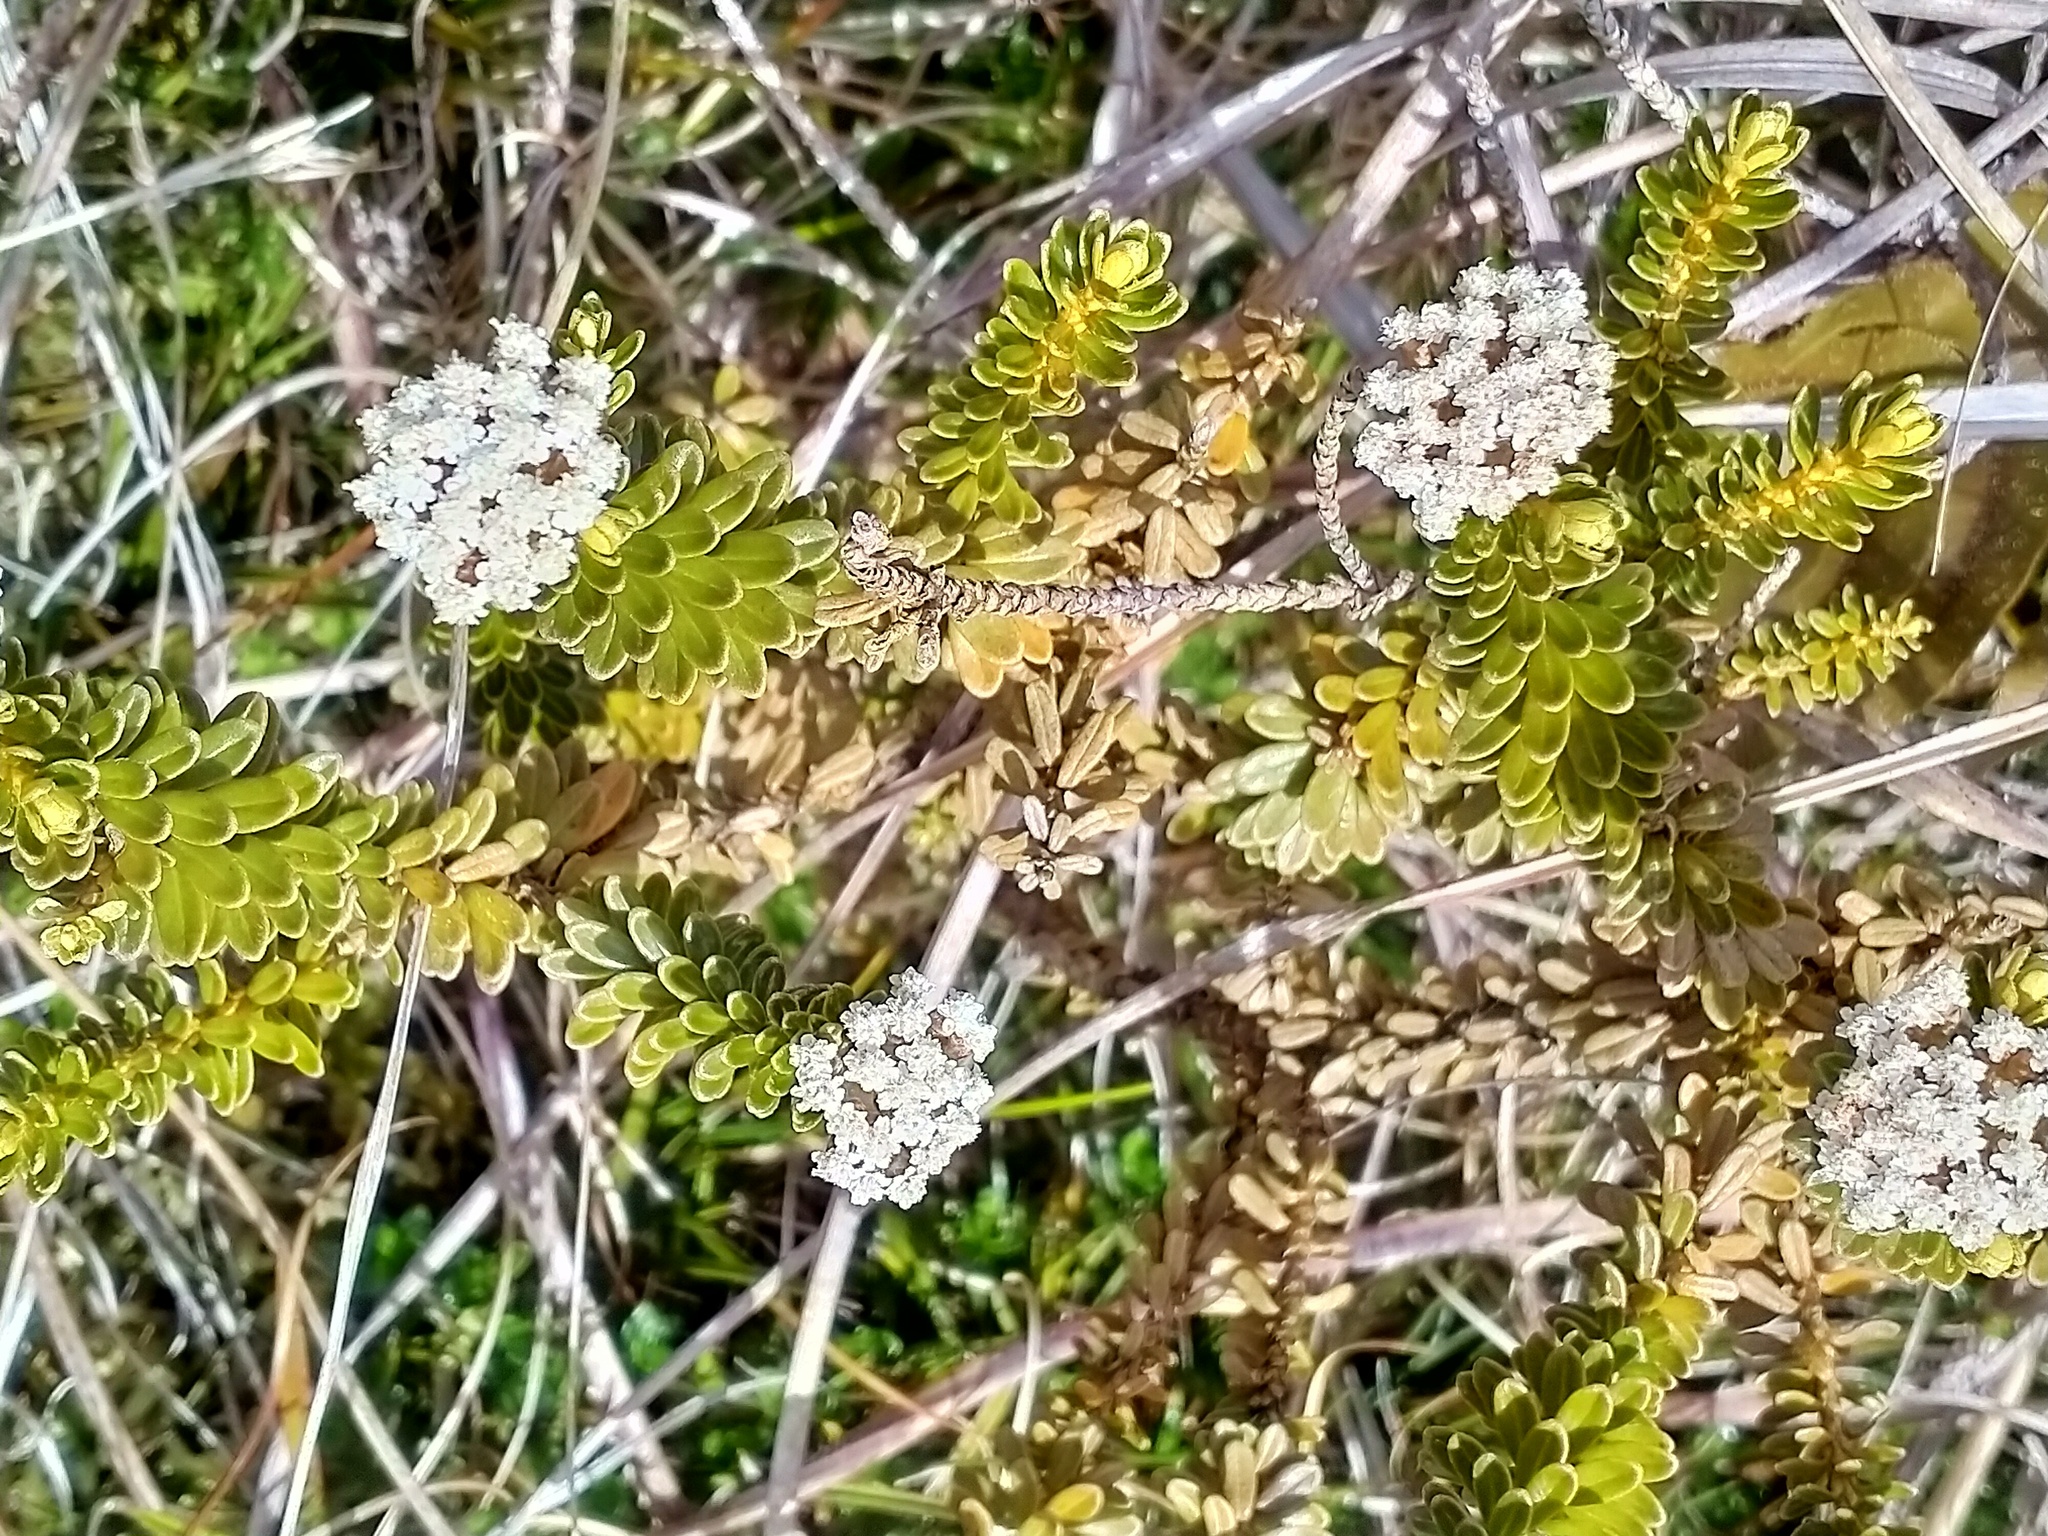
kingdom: Plantae
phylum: Tracheophyta
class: Magnoliopsida
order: Asterales
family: Asteraceae
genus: Ozothamnus
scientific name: Ozothamnus leptophyllus
